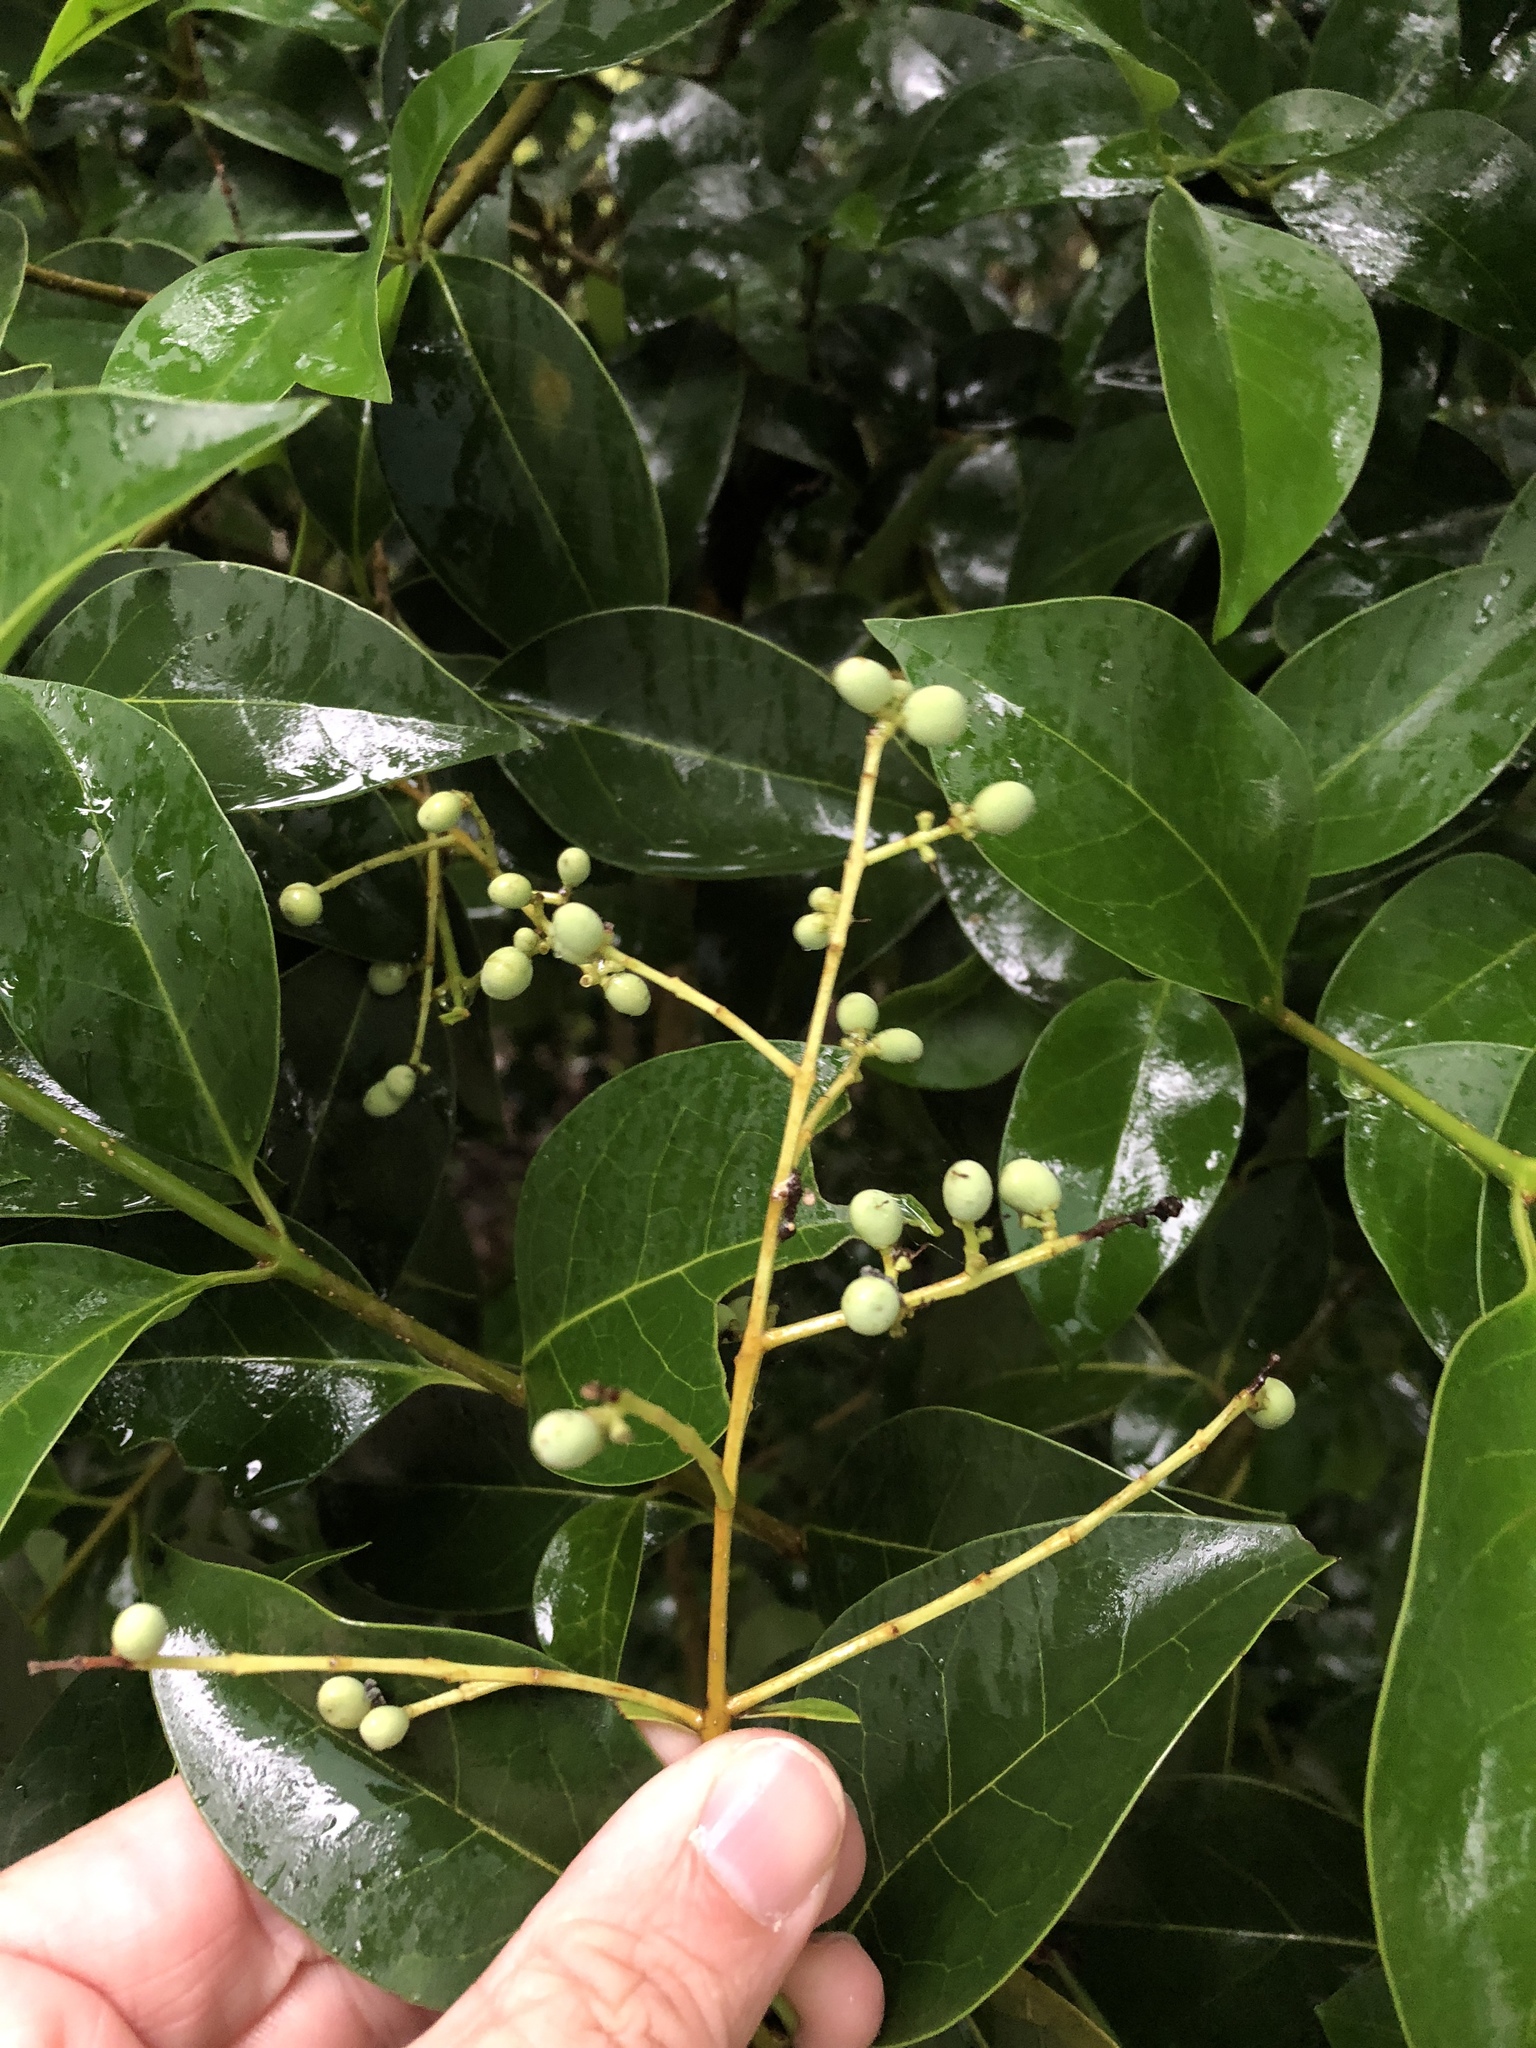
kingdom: Plantae
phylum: Tracheophyta
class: Magnoliopsida
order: Lamiales
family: Oleaceae
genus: Ligustrum
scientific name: Ligustrum lucidum
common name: Glossy privet
